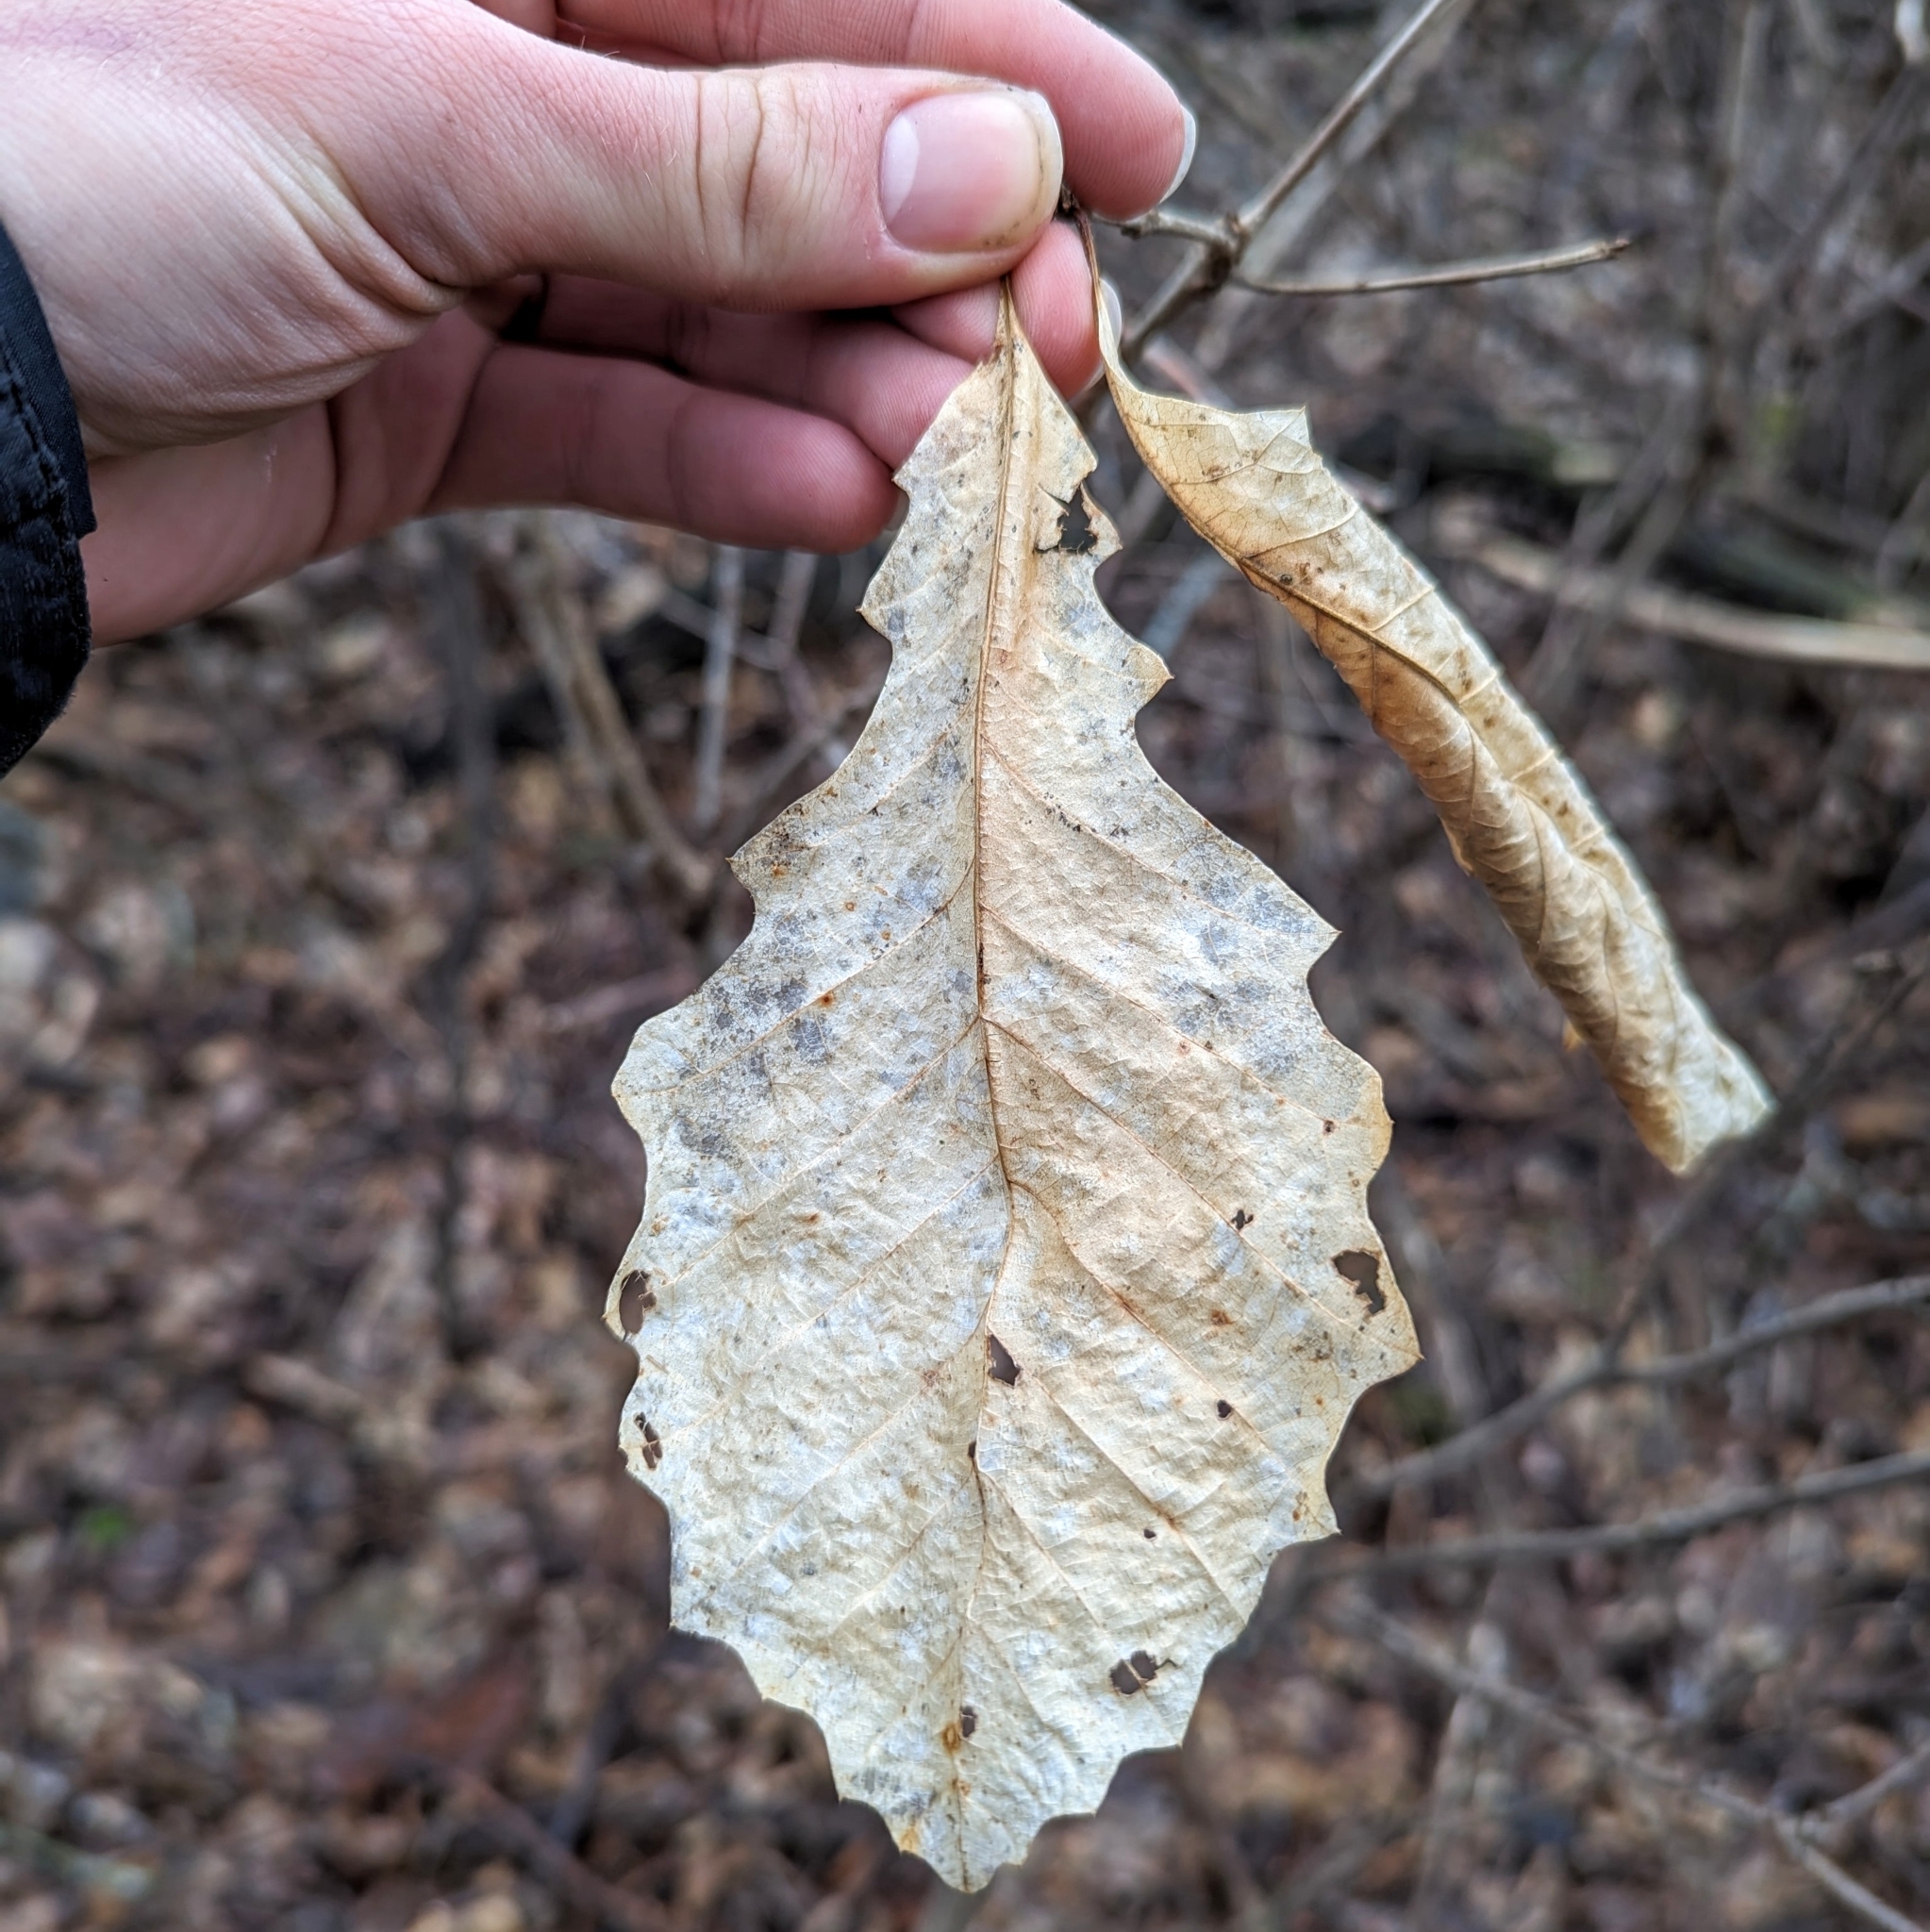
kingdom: Plantae
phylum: Tracheophyta
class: Magnoliopsida
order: Fagales
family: Fagaceae
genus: Quercus
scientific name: Quercus macrocarpa
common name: Bur oak
